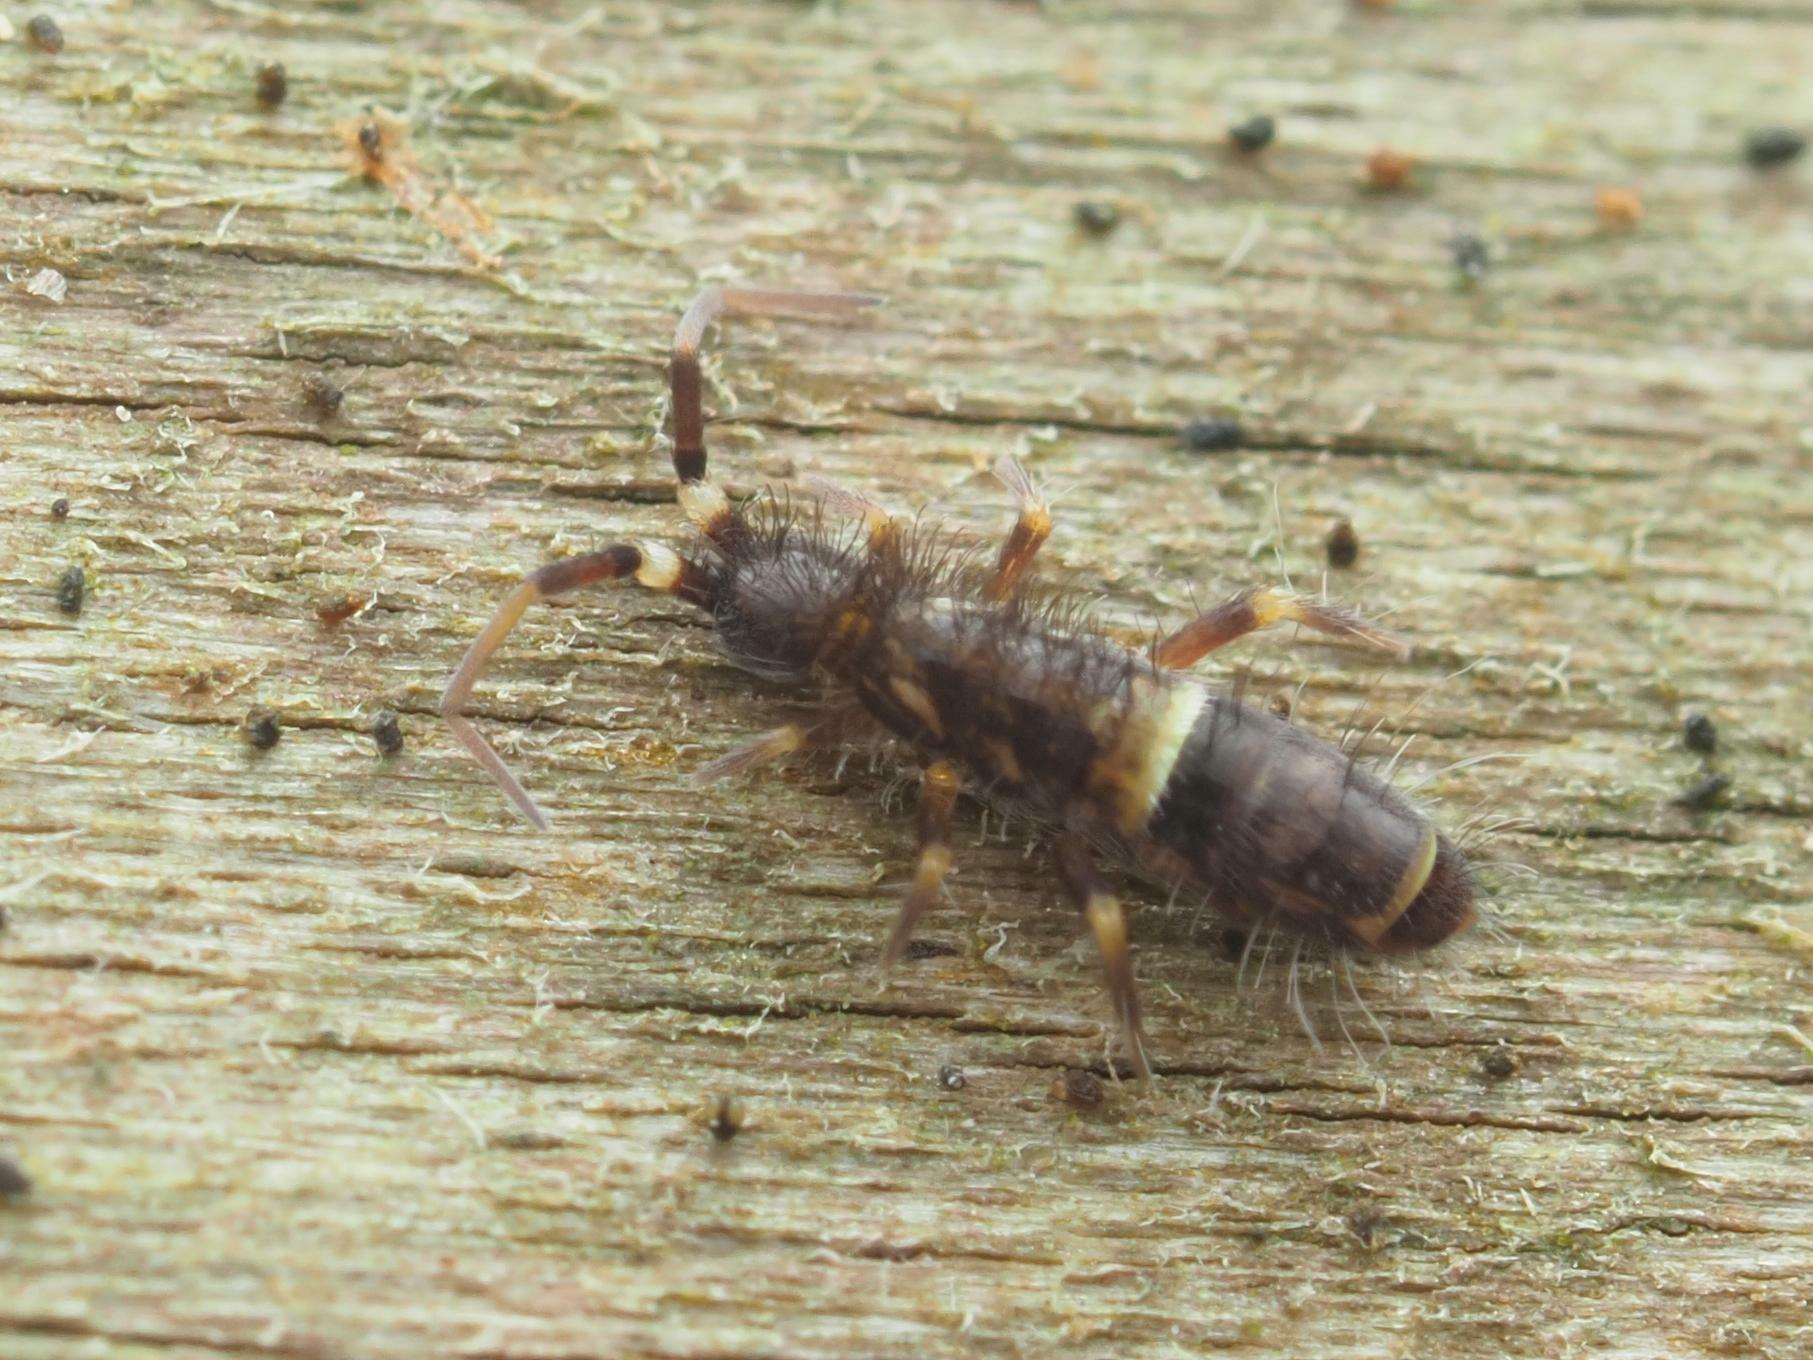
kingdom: Animalia
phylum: Arthropoda
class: Collembola
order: Entomobryomorpha
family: Orchesellidae
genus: Orchesella
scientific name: Orchesella cincta
